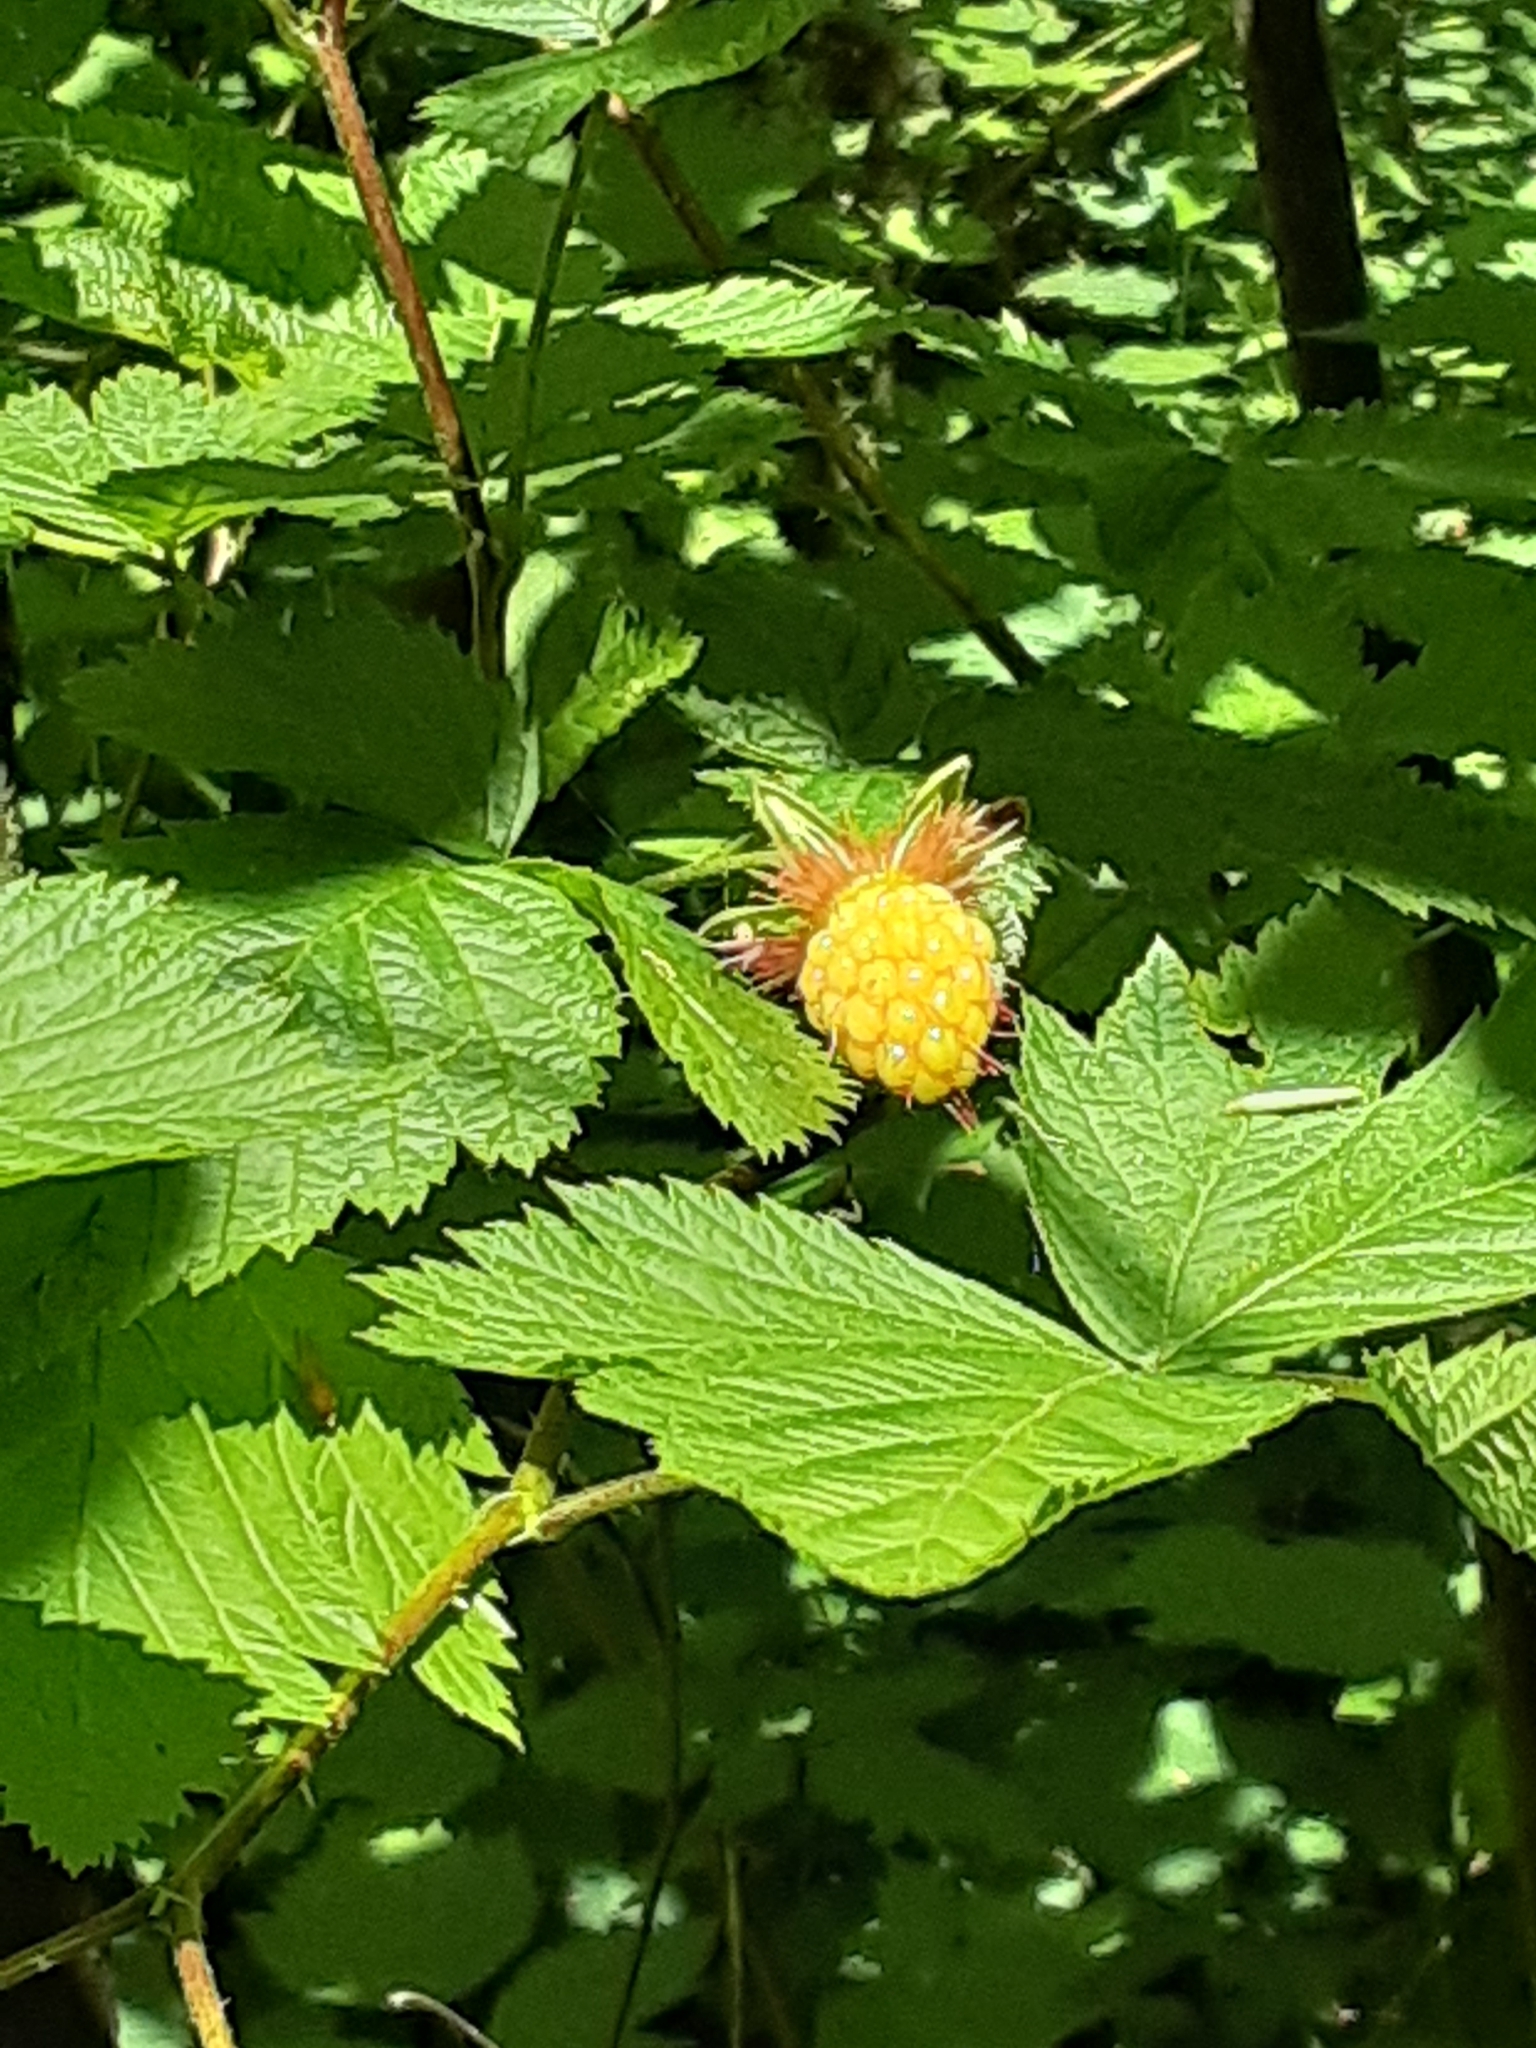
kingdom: Plantae
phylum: Tracheophyta
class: Magnoliopsida
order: Rosales
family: Rosaceae
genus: Rubus
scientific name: Rubus spectabilis
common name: Salmonberry
